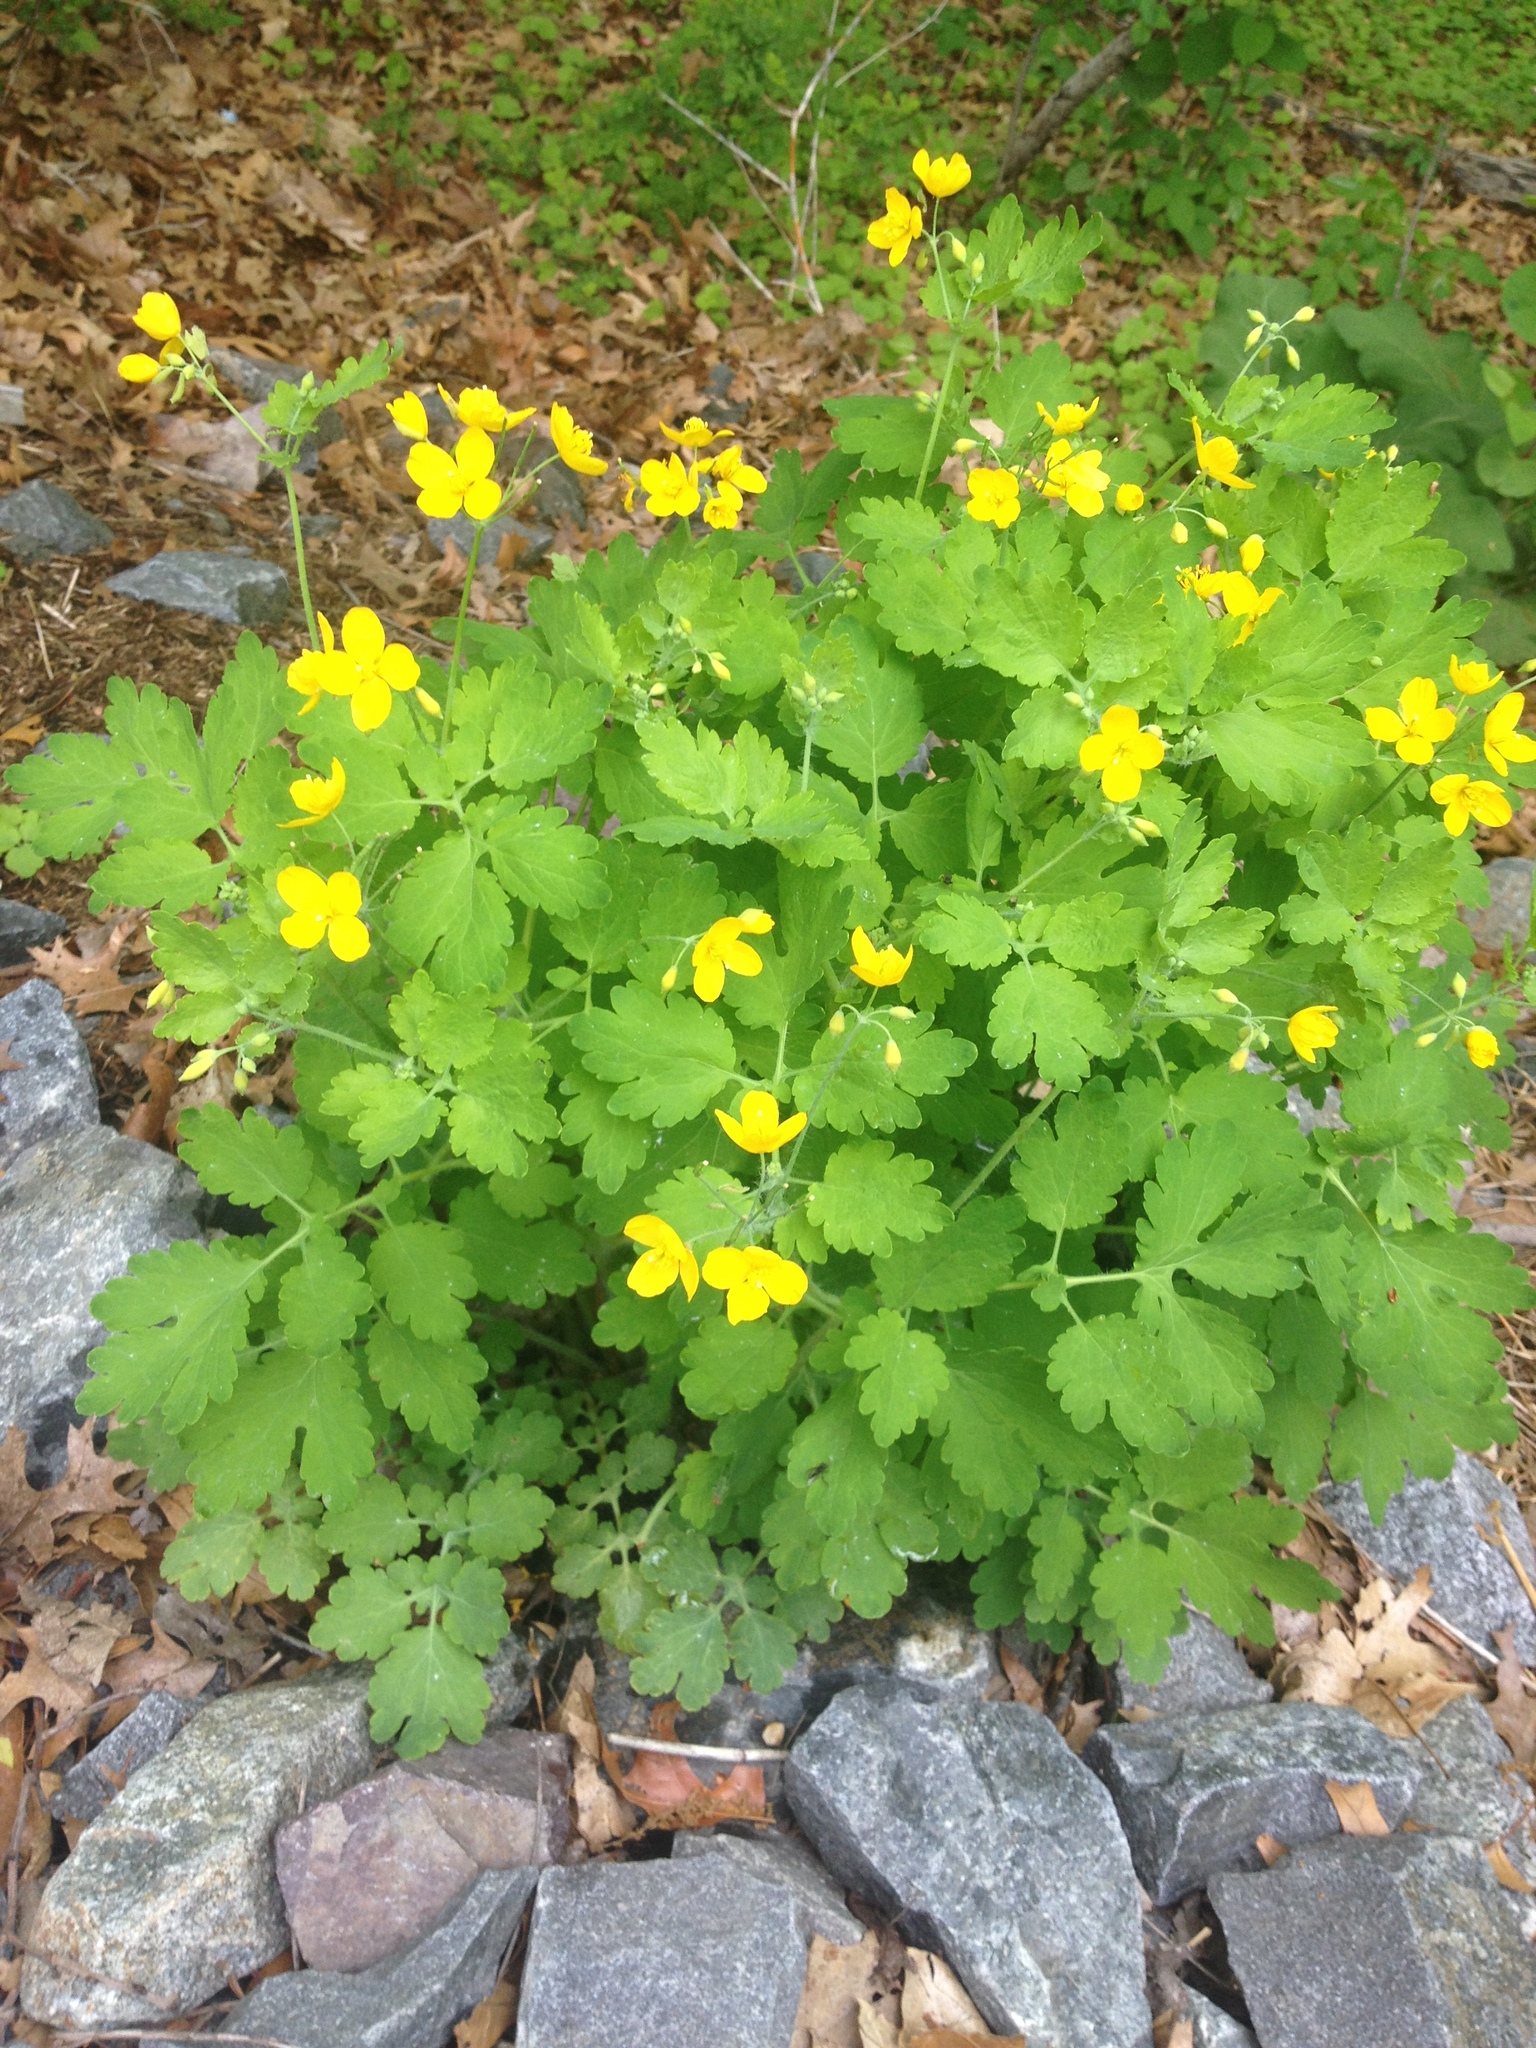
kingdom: Plantae
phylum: Tracheophyta
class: Magnoliopsida
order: Ranunculales
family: Papaveraceae
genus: Chelidonium
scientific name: Chelidonium majus
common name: Greater celandine
